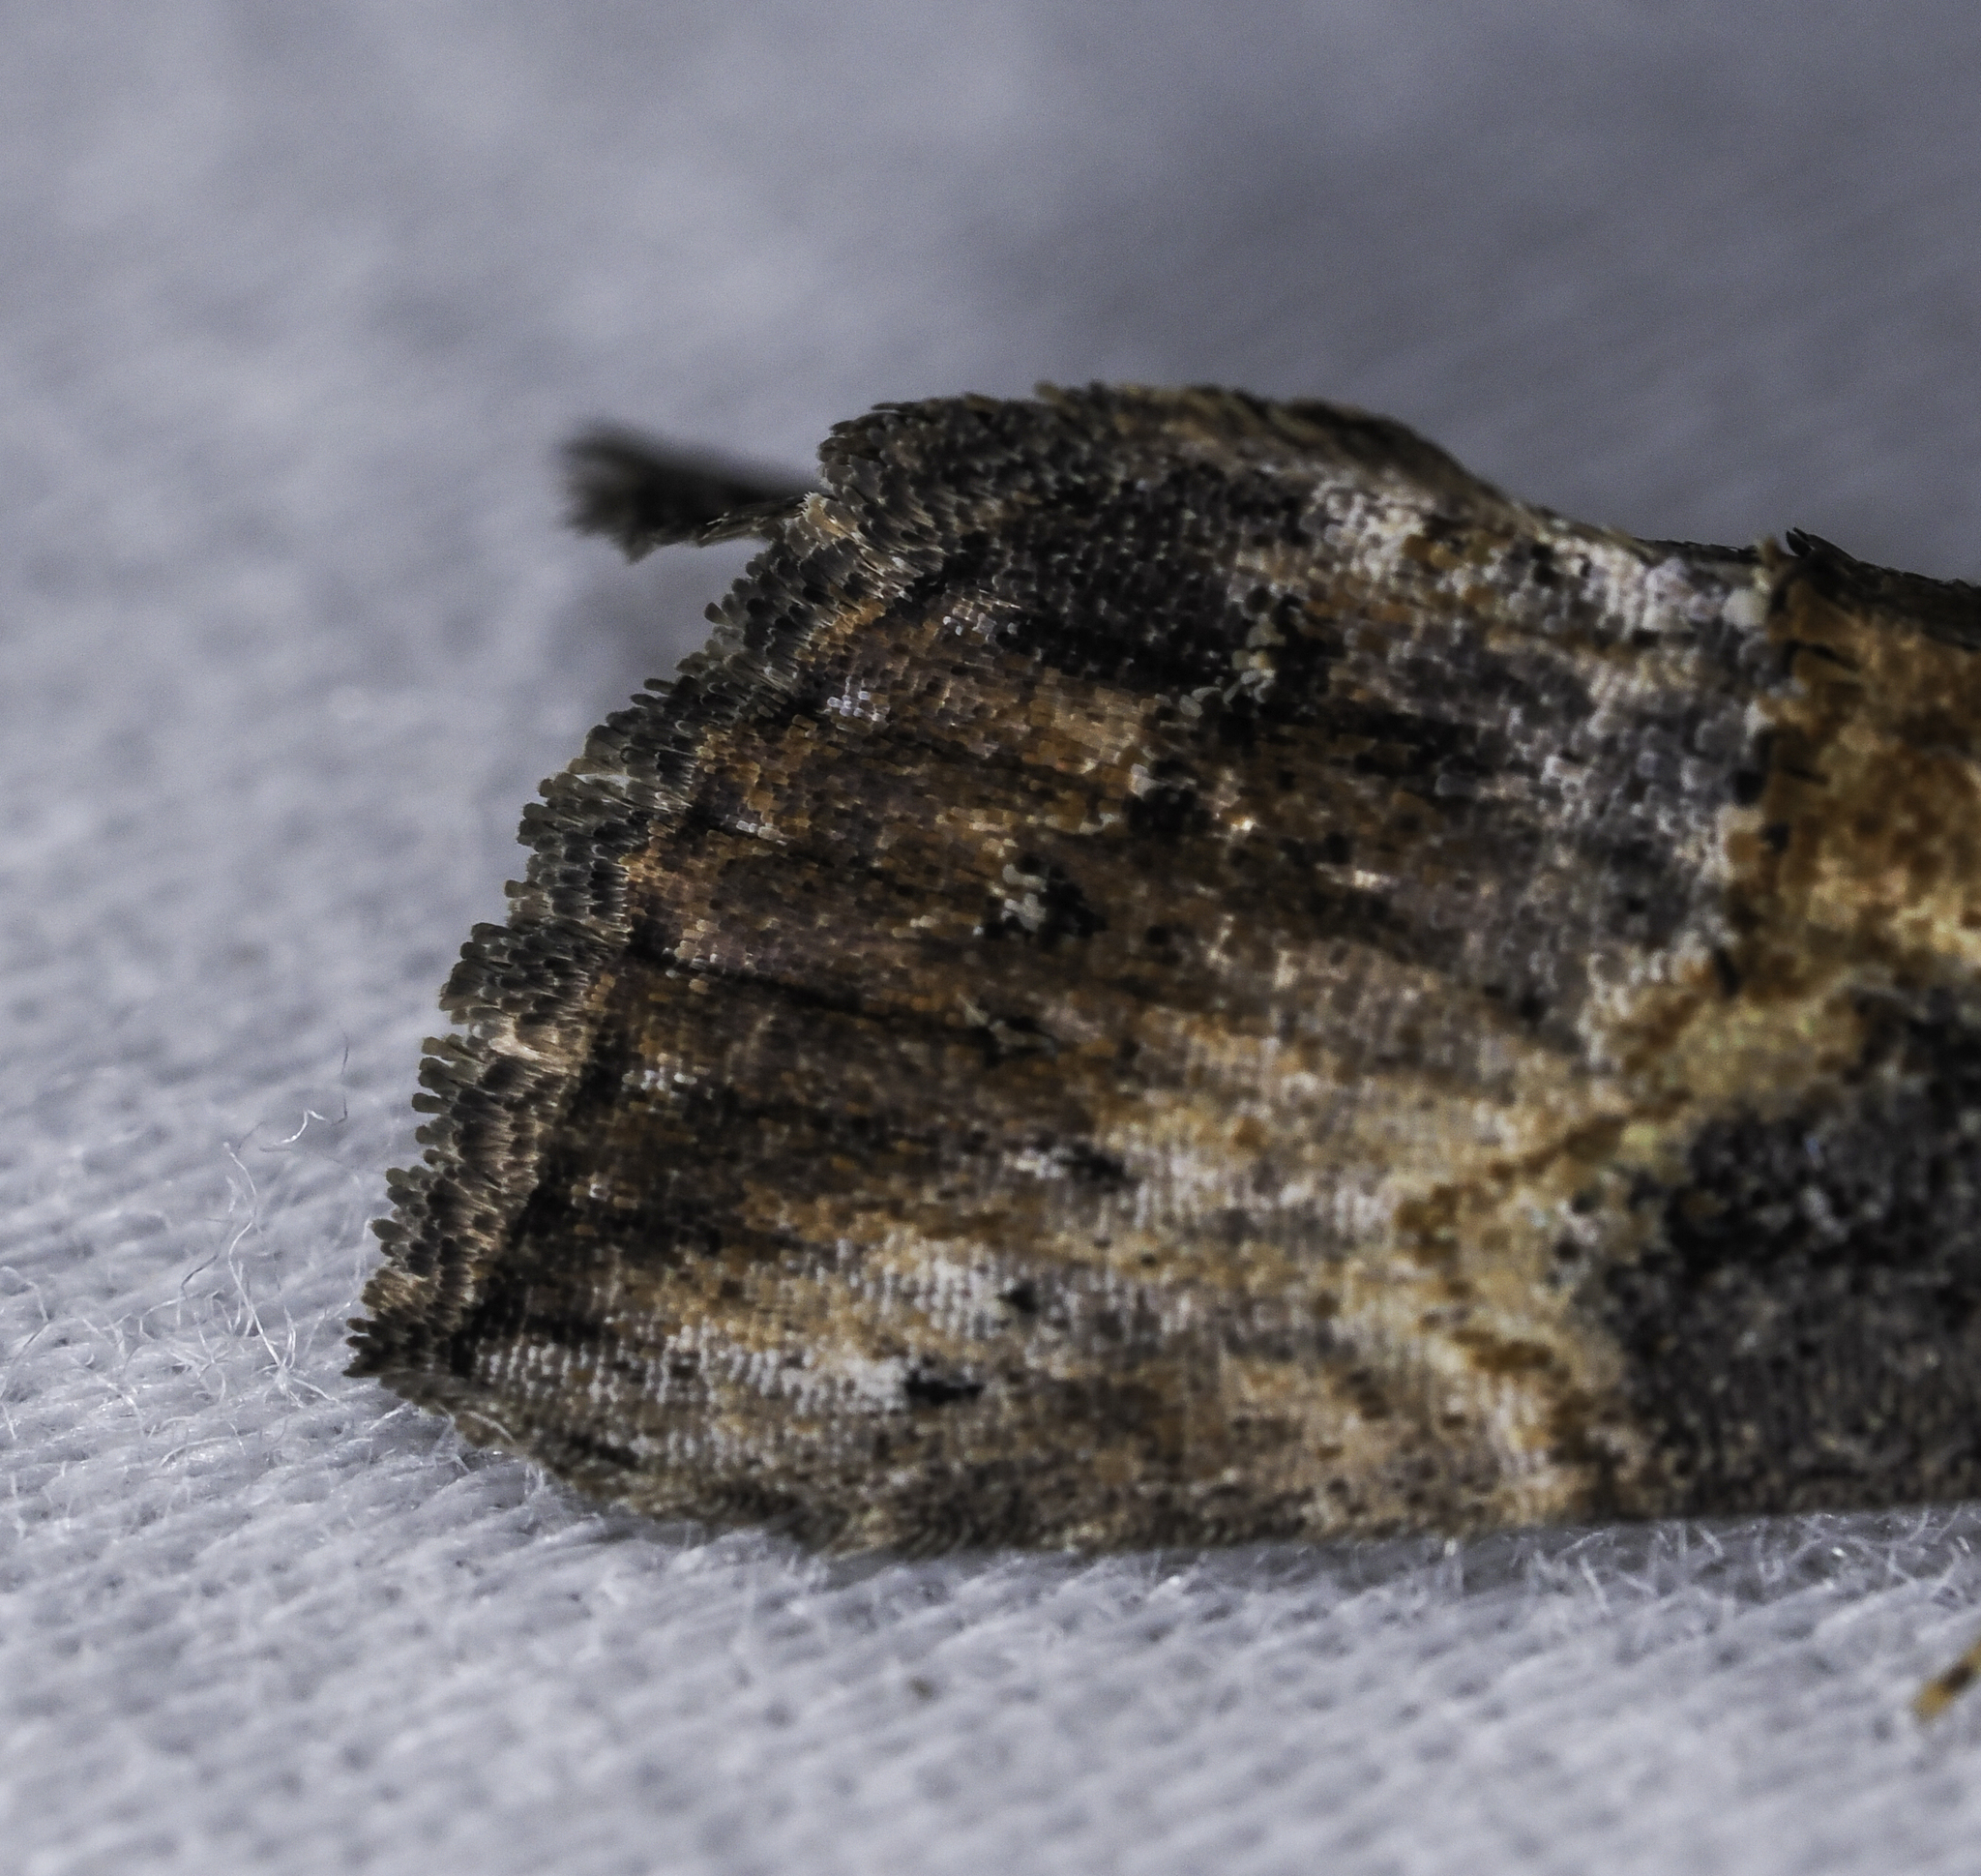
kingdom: Animalia
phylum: Arthropoda
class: Insecta
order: Lepidoptera
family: Erebidae
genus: Hypena
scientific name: Hypena scabra
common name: Green cloverworm
